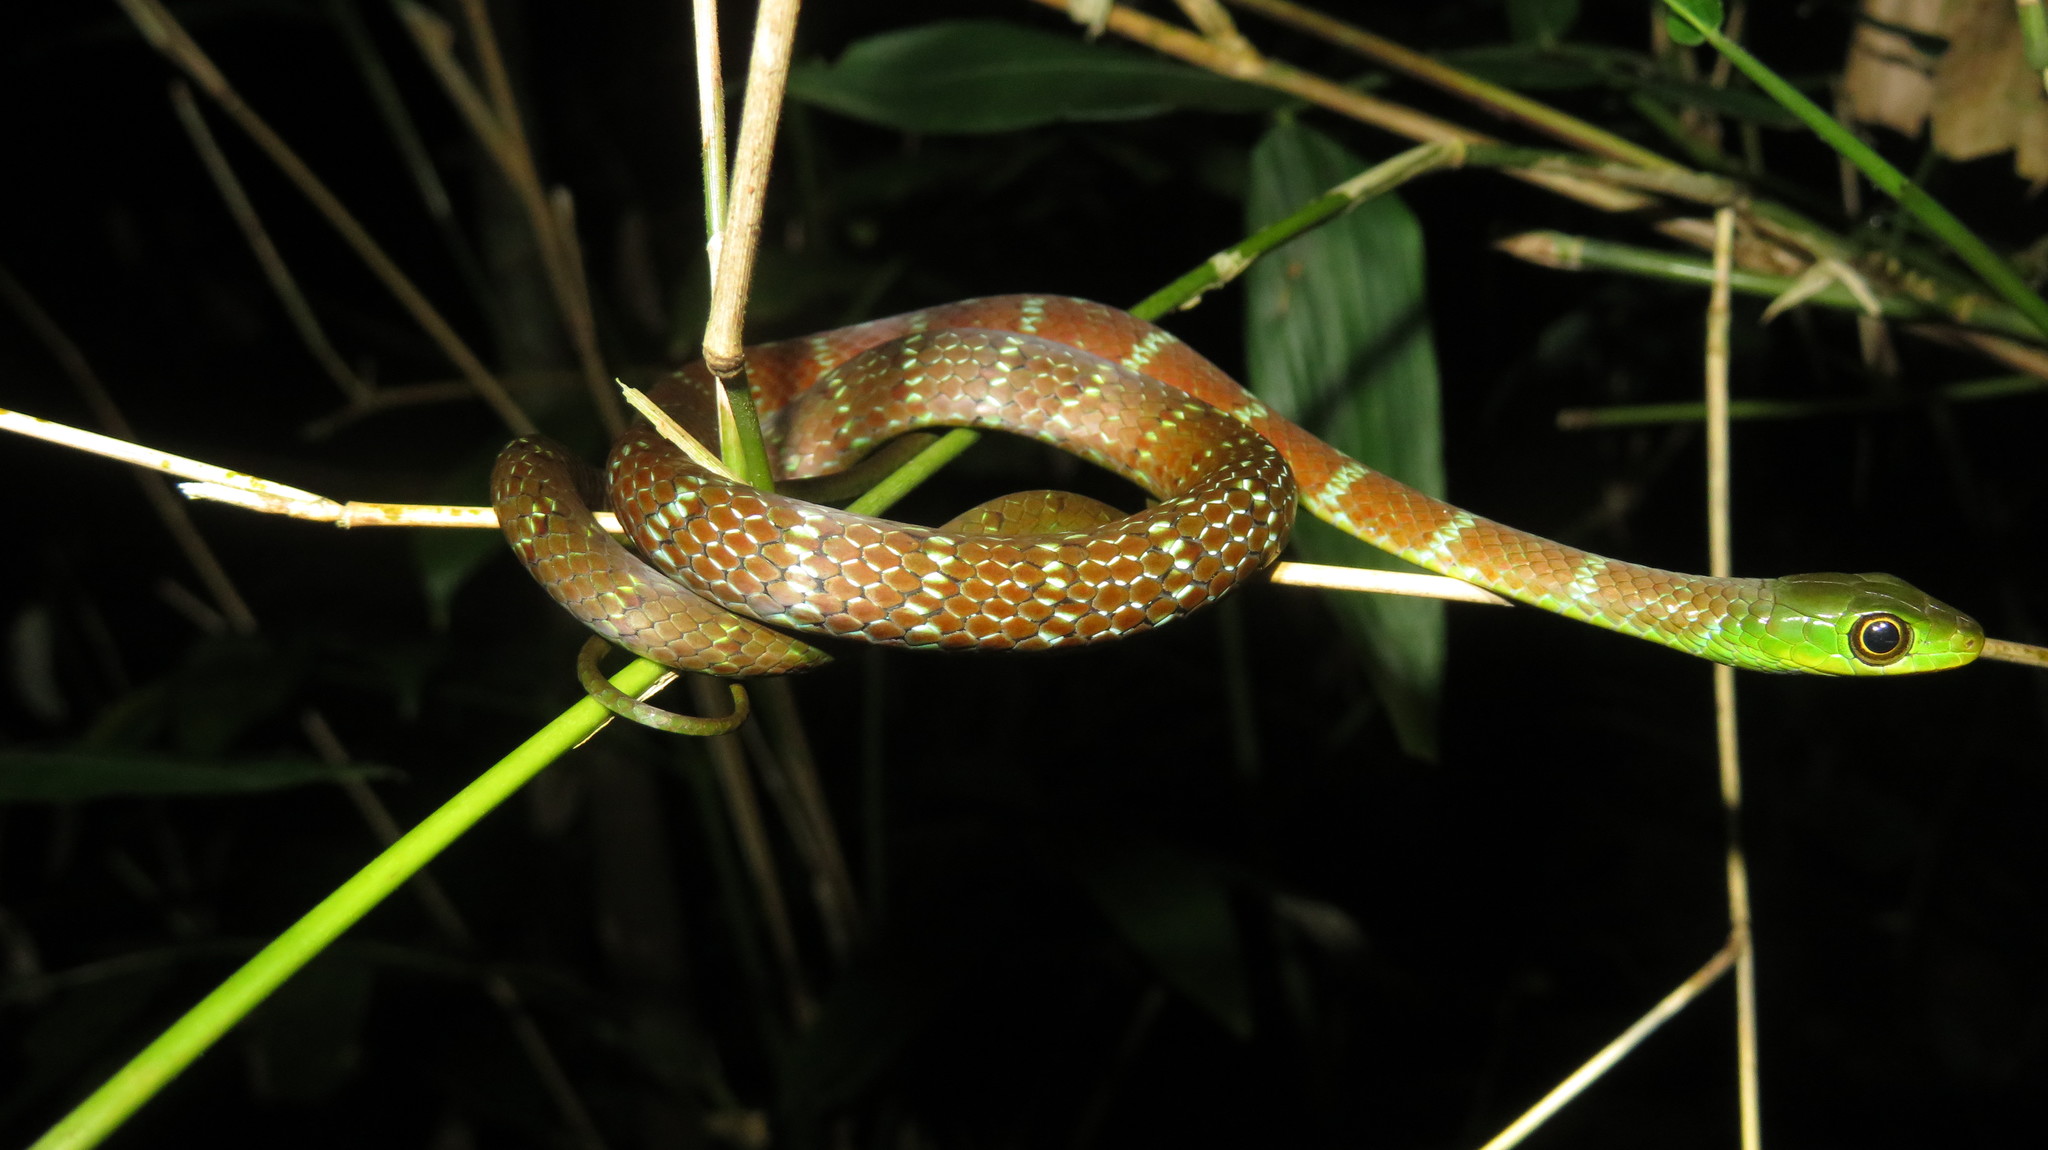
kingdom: Animalia
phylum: Chordata
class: Squamata
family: Colubridae
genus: Philothamnus
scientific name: Philothamnus macrops
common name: Large-eyed green snake
